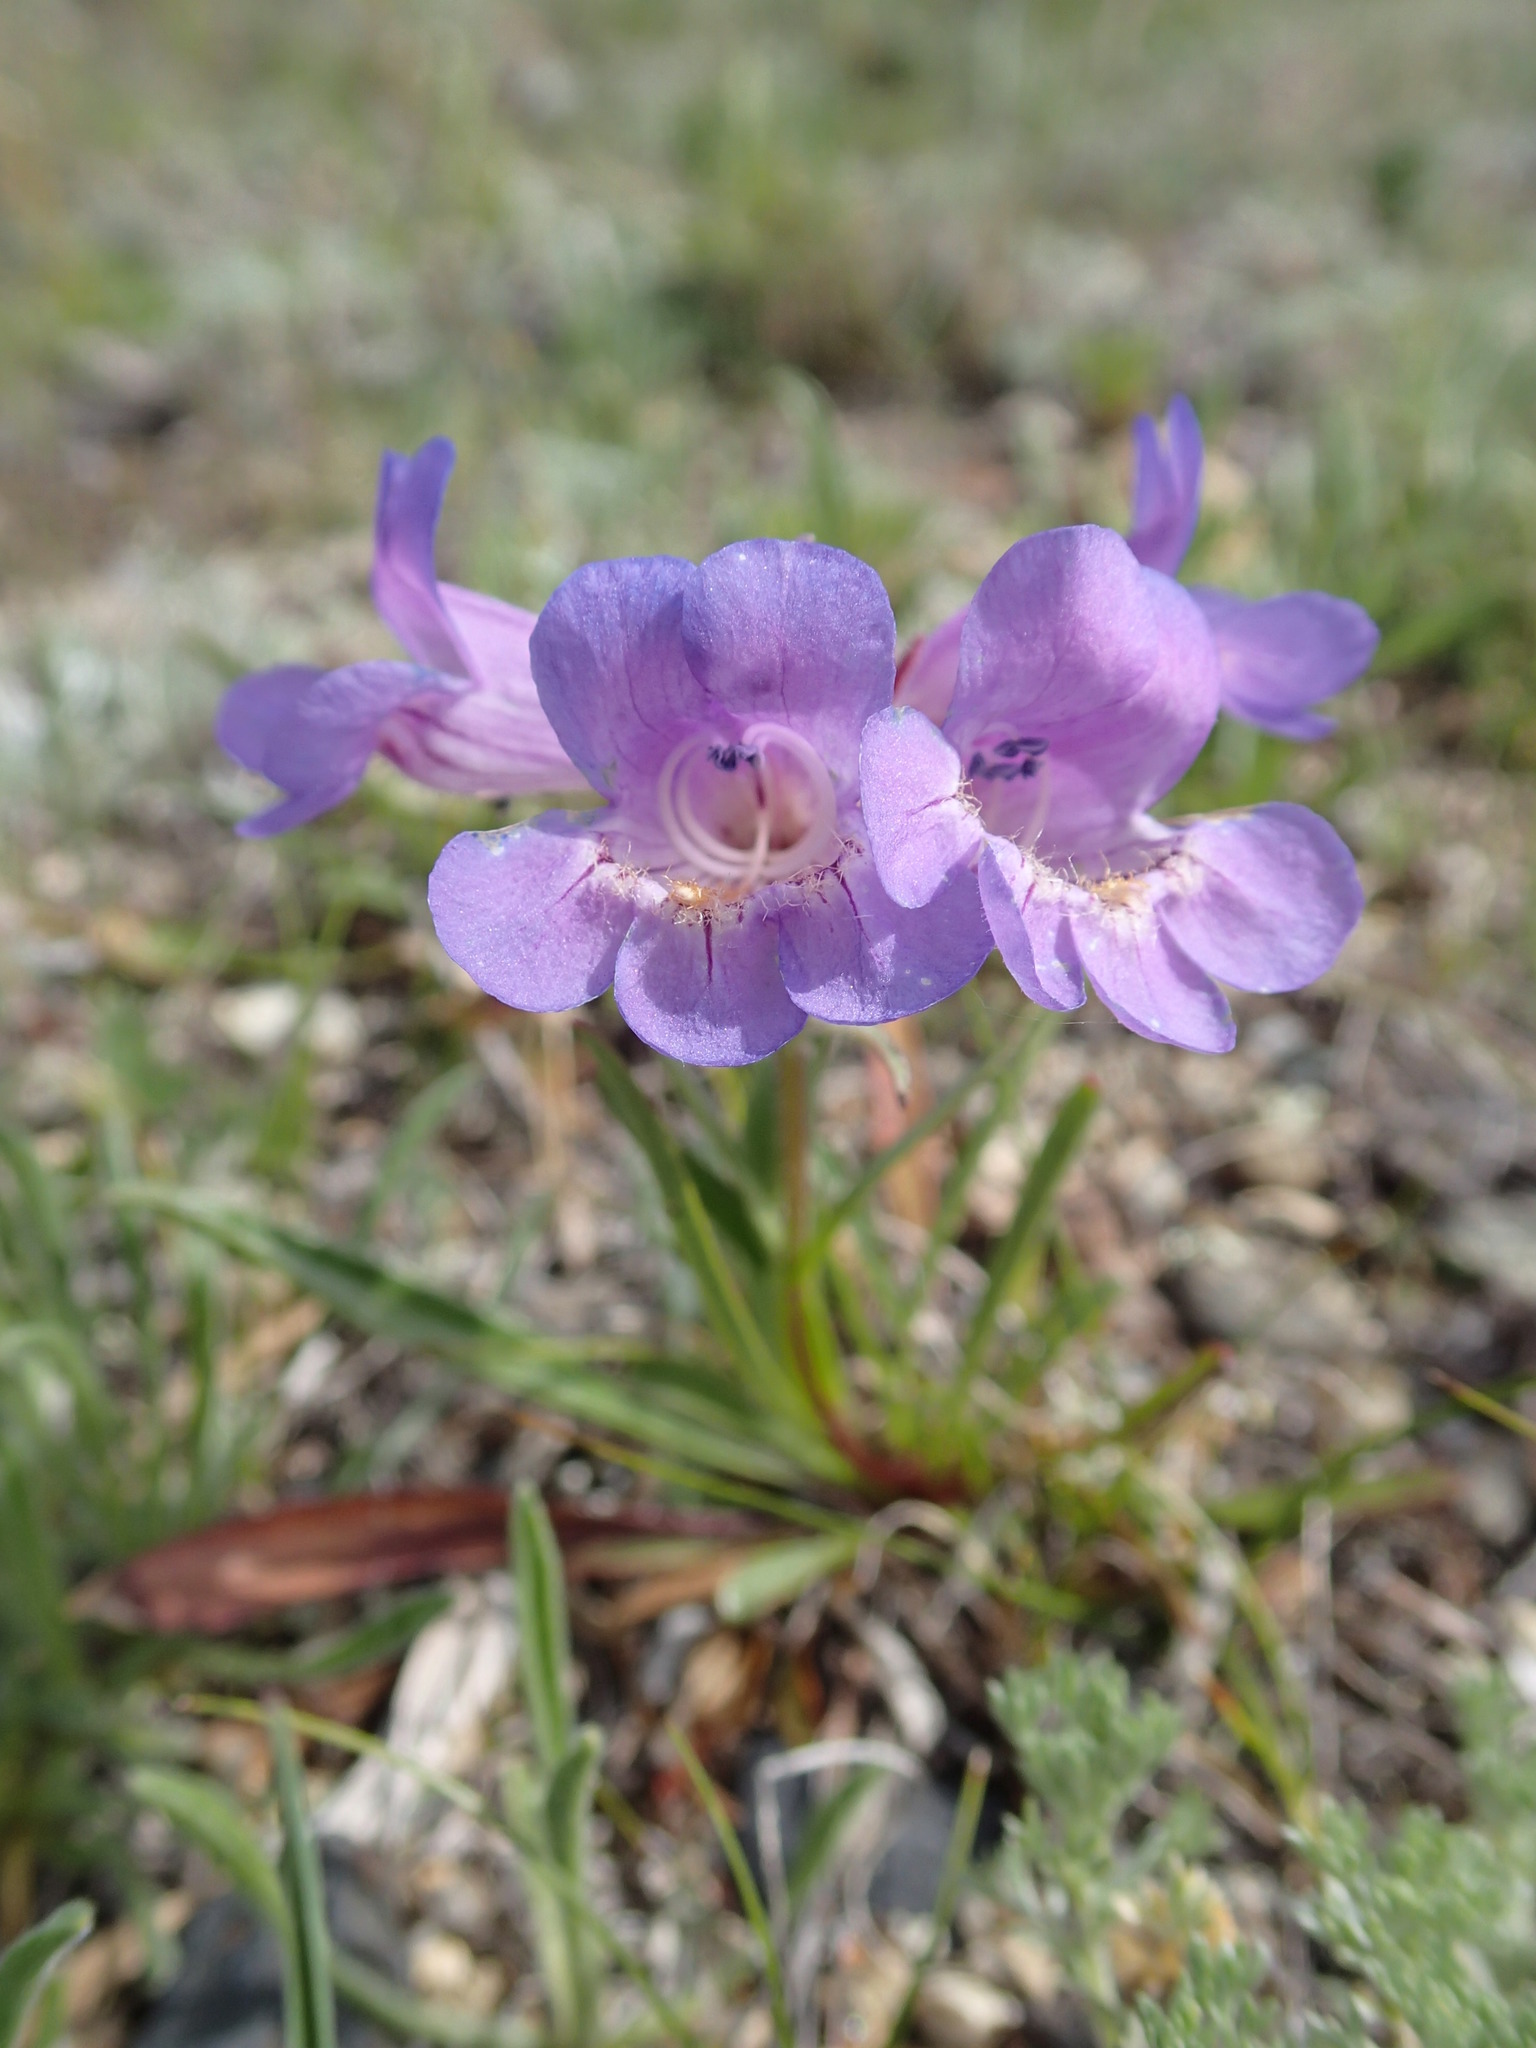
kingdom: Plantae
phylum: Tracheophyta
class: Magnoliopsida
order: Lamiales
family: Plantaginaceae
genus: Penstemon
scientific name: Penstemon gormanii
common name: Gorman's beardtongue
